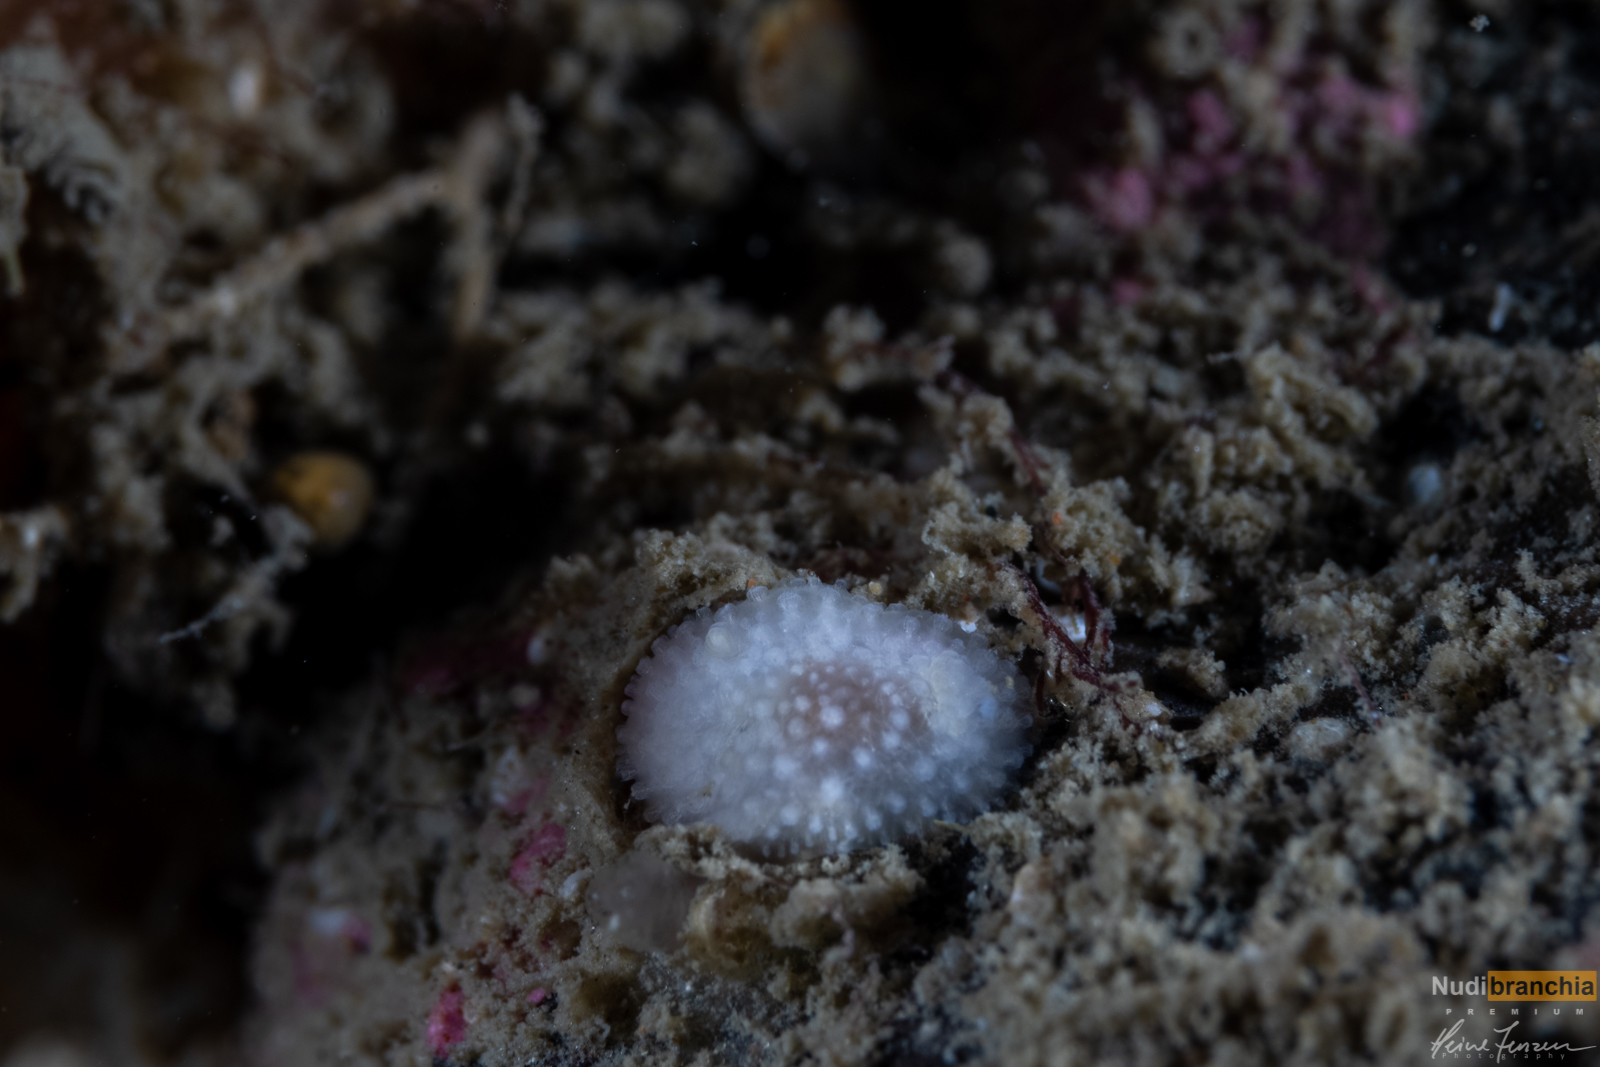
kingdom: Animalia
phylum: Mollusca
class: Gastropoda
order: Nudibranchia
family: Onchidorididae
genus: Onchidoris
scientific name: Onchidoris muricata
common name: Rough doris
